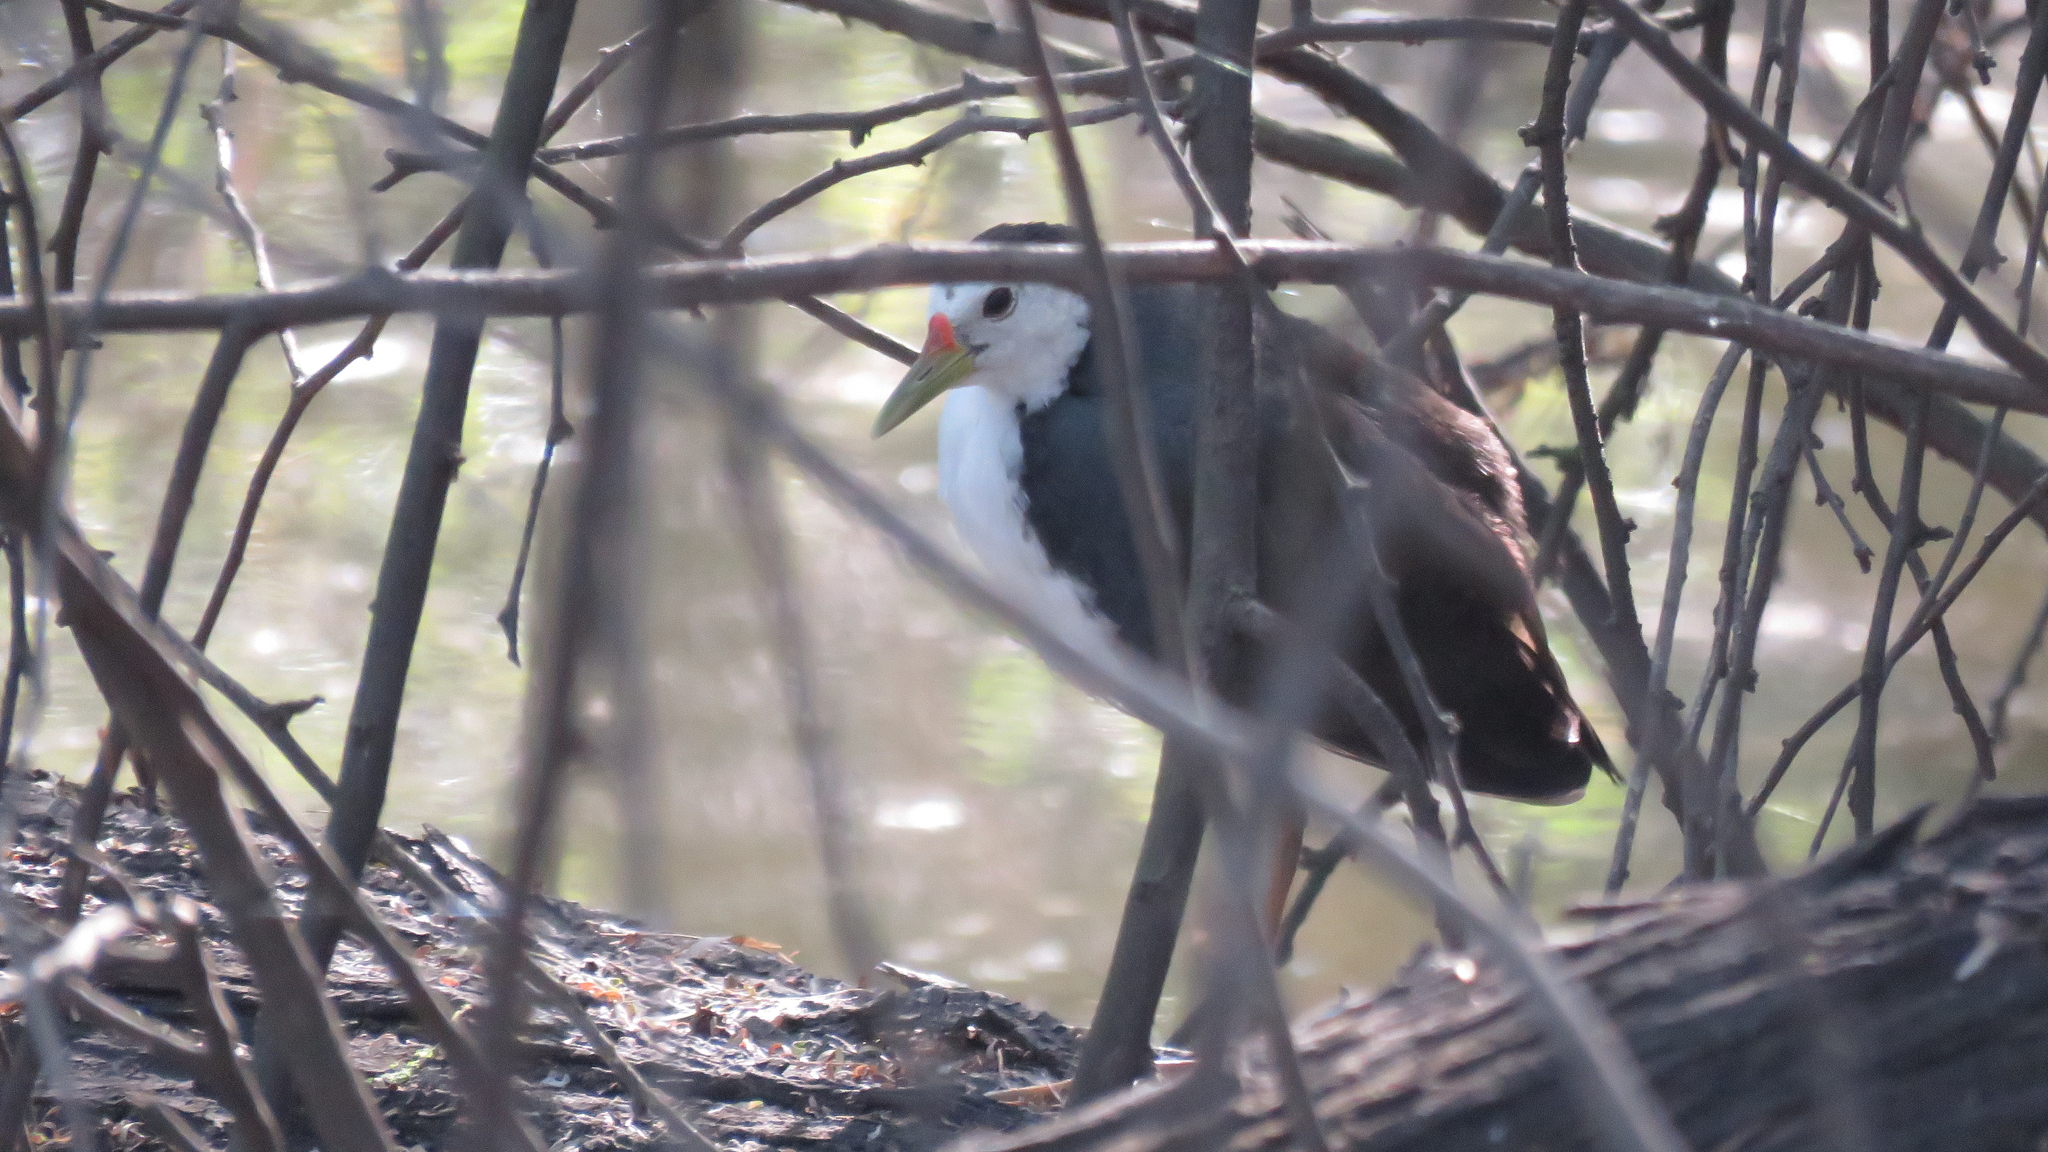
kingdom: Animalia
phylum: Chordata
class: Aves
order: Gruiformes
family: Rallidae
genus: Amaurornis
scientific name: Amaurornis phoenicurus
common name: White-breasted waterhen
